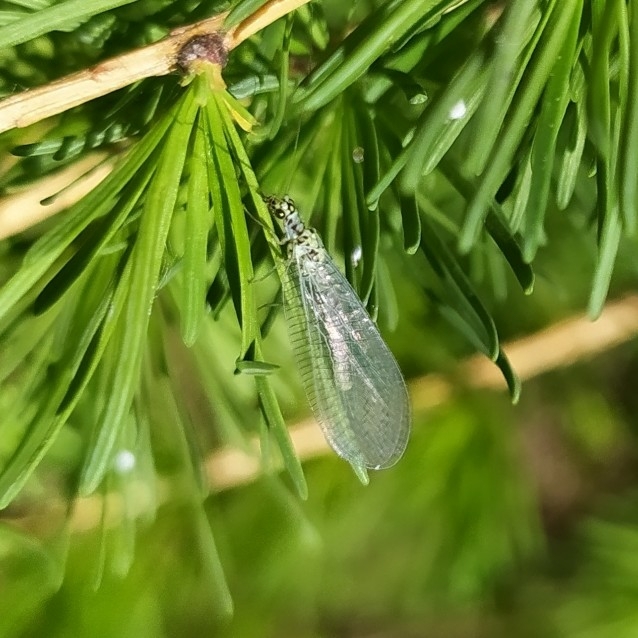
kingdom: Animalia
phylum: Arthropoda
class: Insecta
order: Neuroptera
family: Chrysopidae
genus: Chrysopa
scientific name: Chrysopa perla
